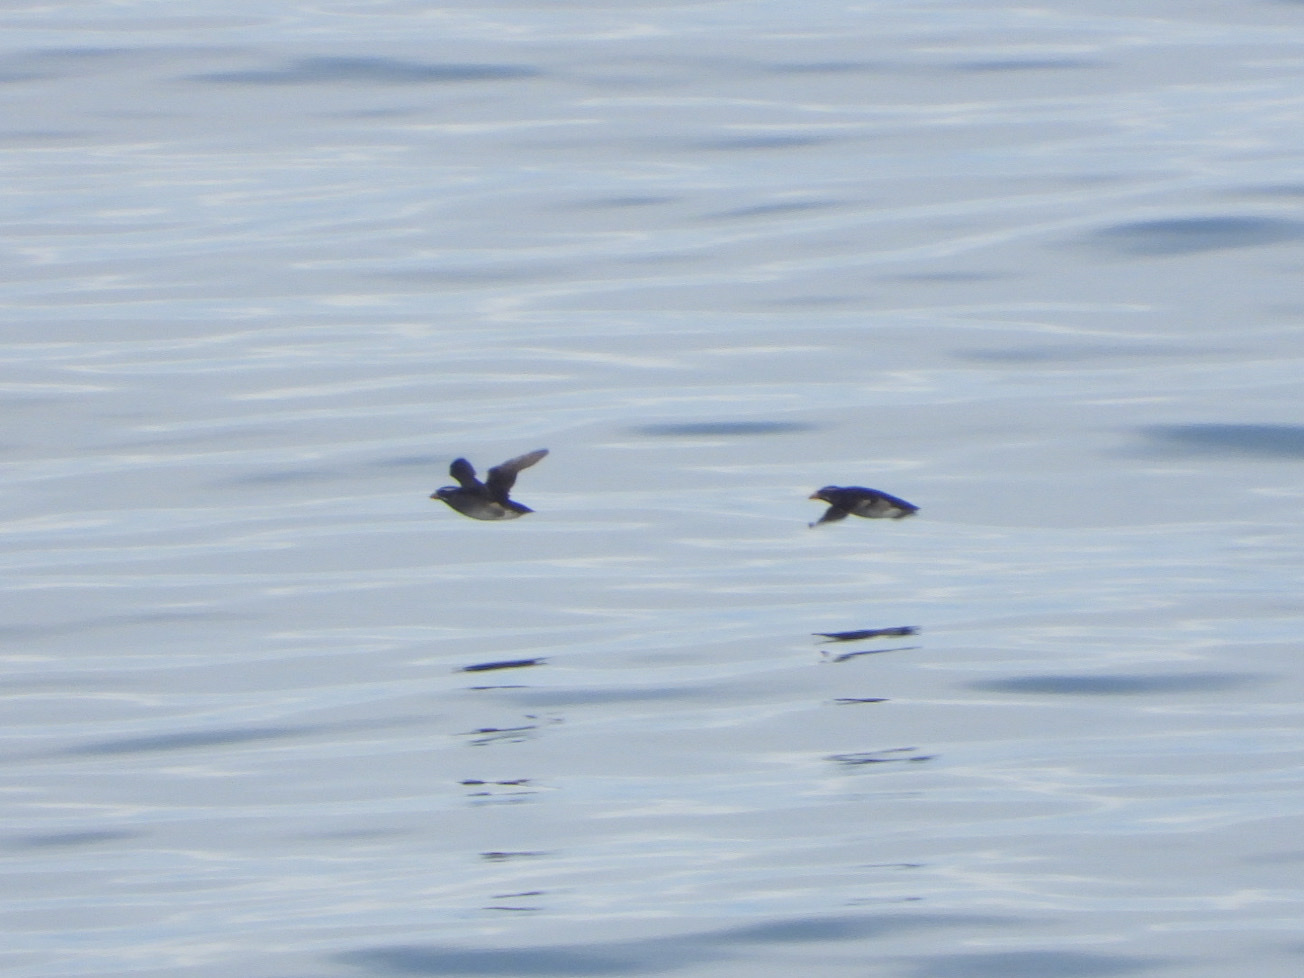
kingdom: Animalia
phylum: Chordata
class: Aves
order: Charadriiformes
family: Alcidae
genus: Cerorhinca
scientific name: Cerorhinca monocerata
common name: Rhinoceros auklet
